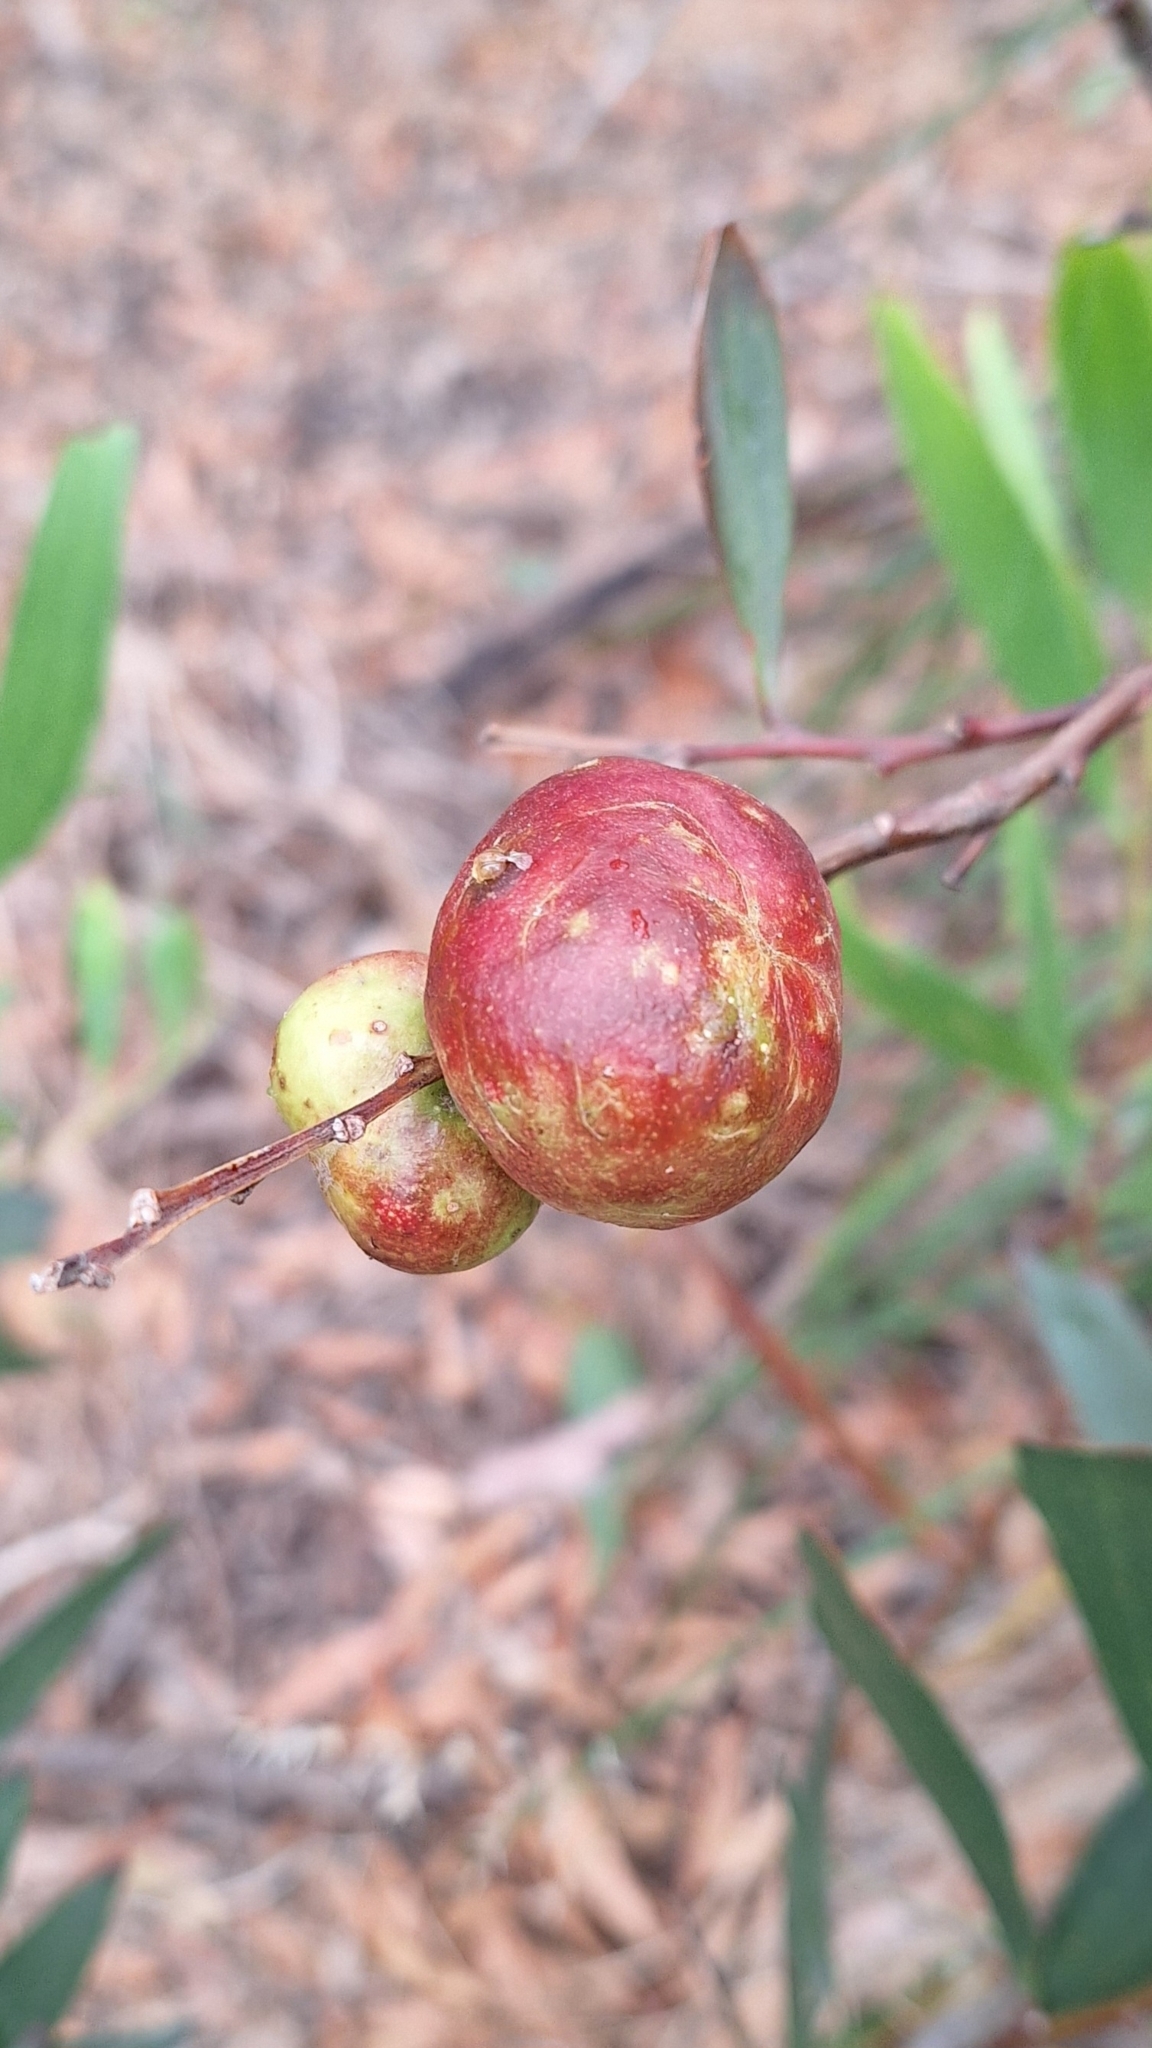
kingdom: Animalia
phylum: Arthropoda
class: Insecta
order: Hymenoptera
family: Pteromalidae
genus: Trichilogaster
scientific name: Trichilogaster acaciaelongifoliae
